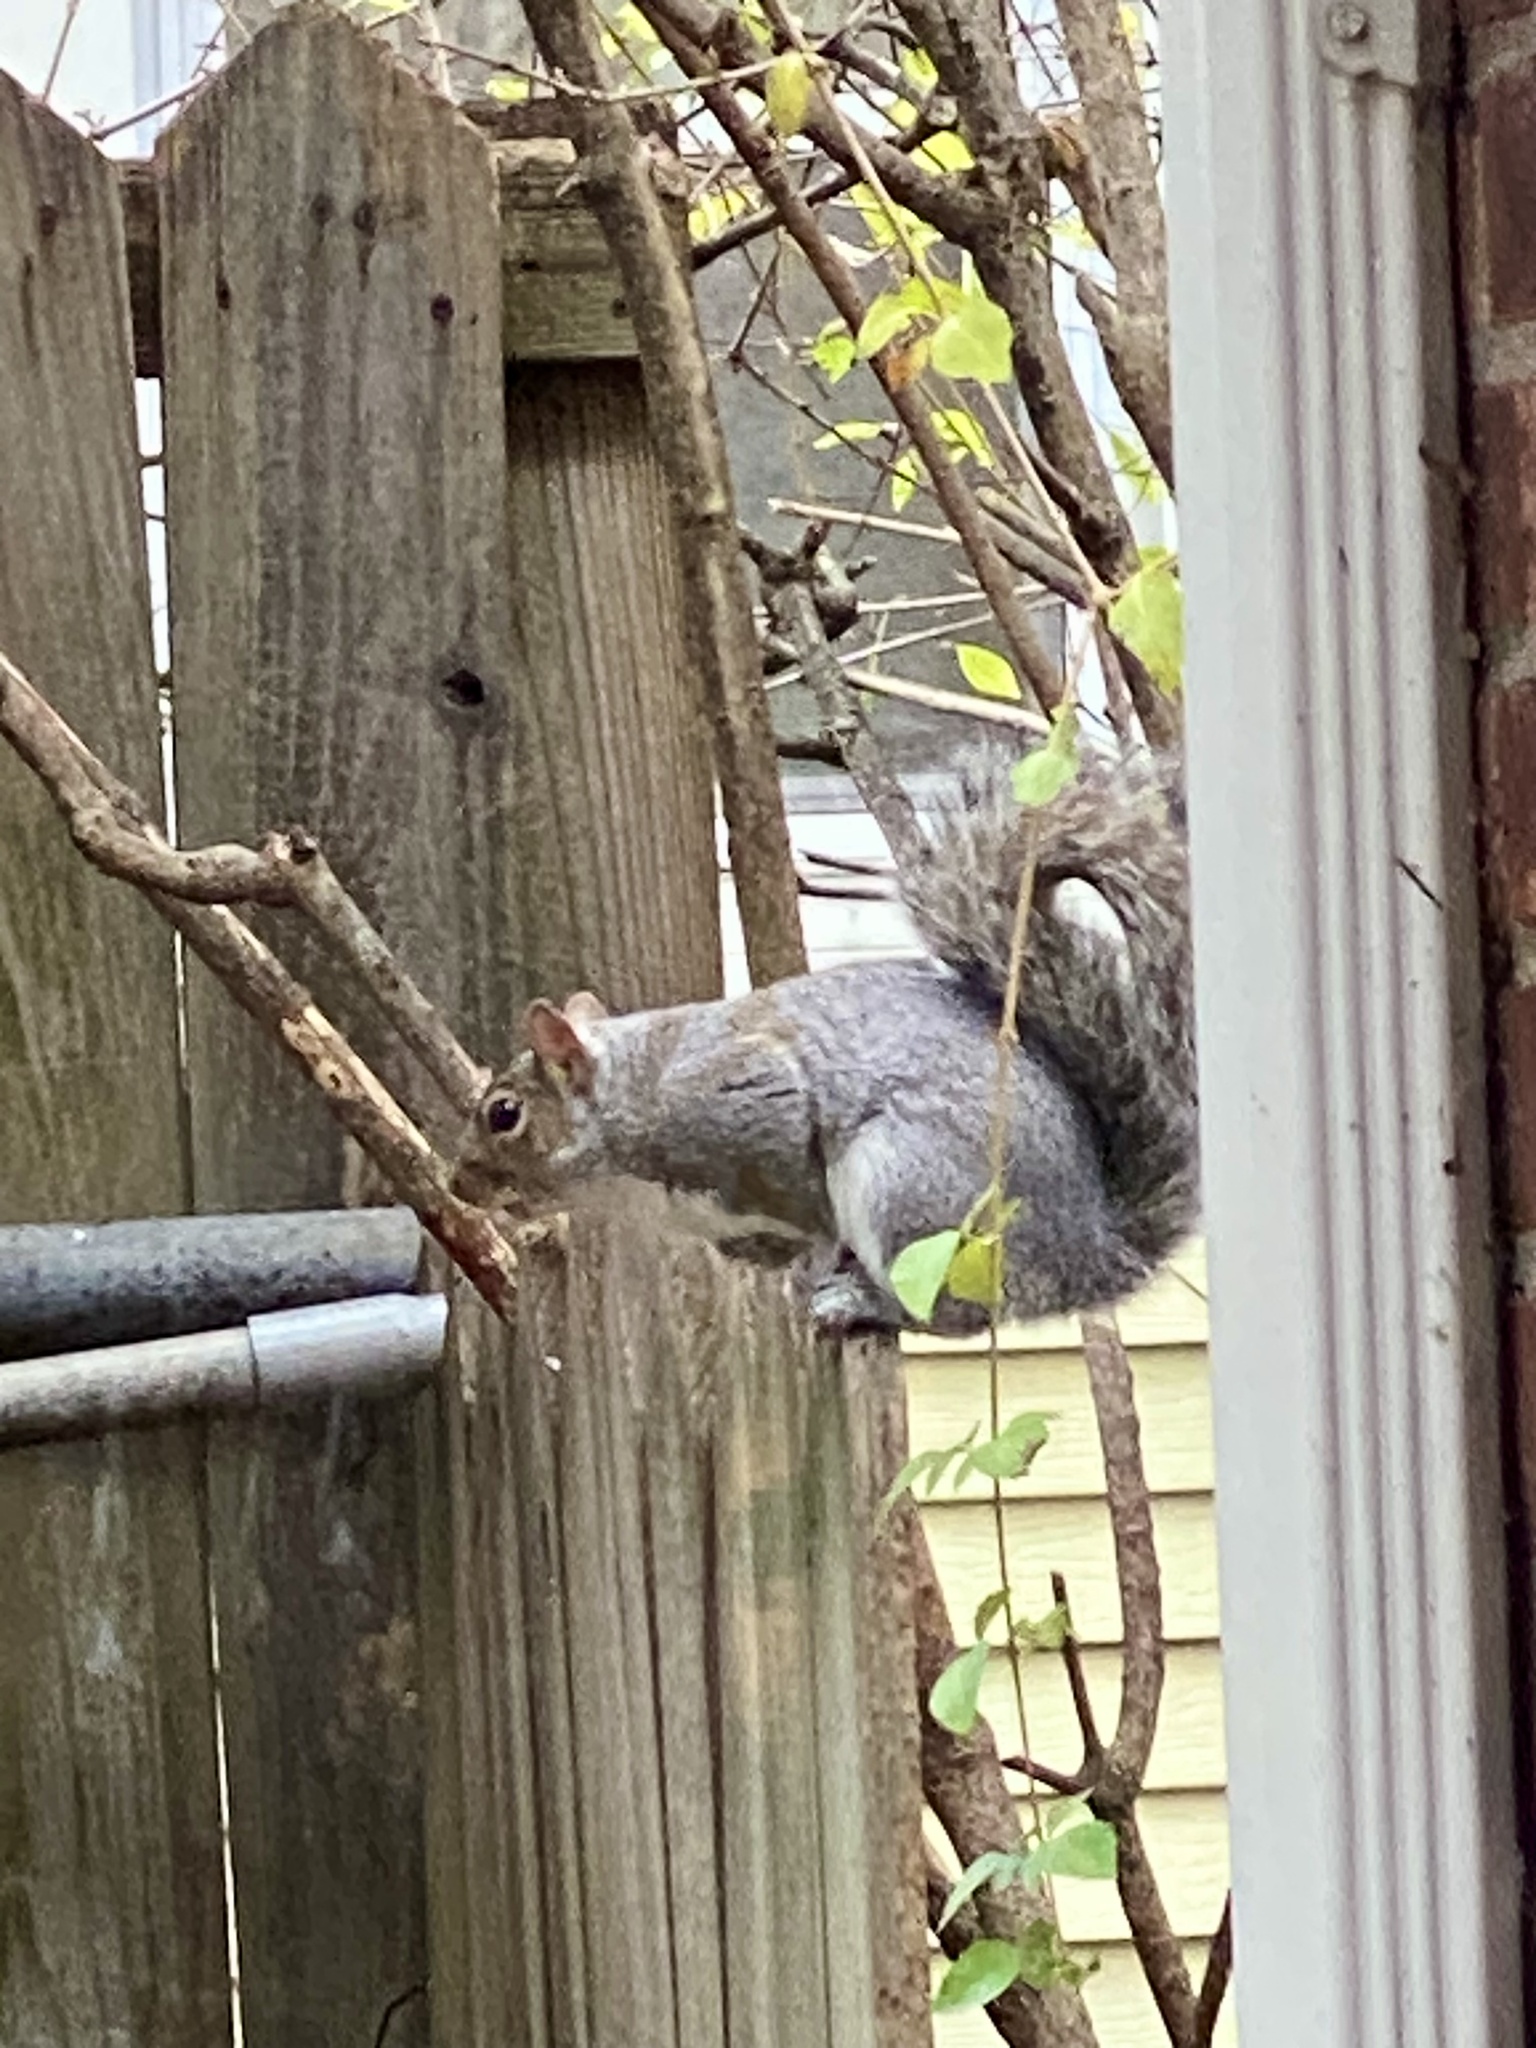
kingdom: Animalia
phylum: Chordata
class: Mammalia
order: Rodentia
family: Sciuridae
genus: Sciurus
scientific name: Sciurus carolinensis
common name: Eastern gray squirrel
